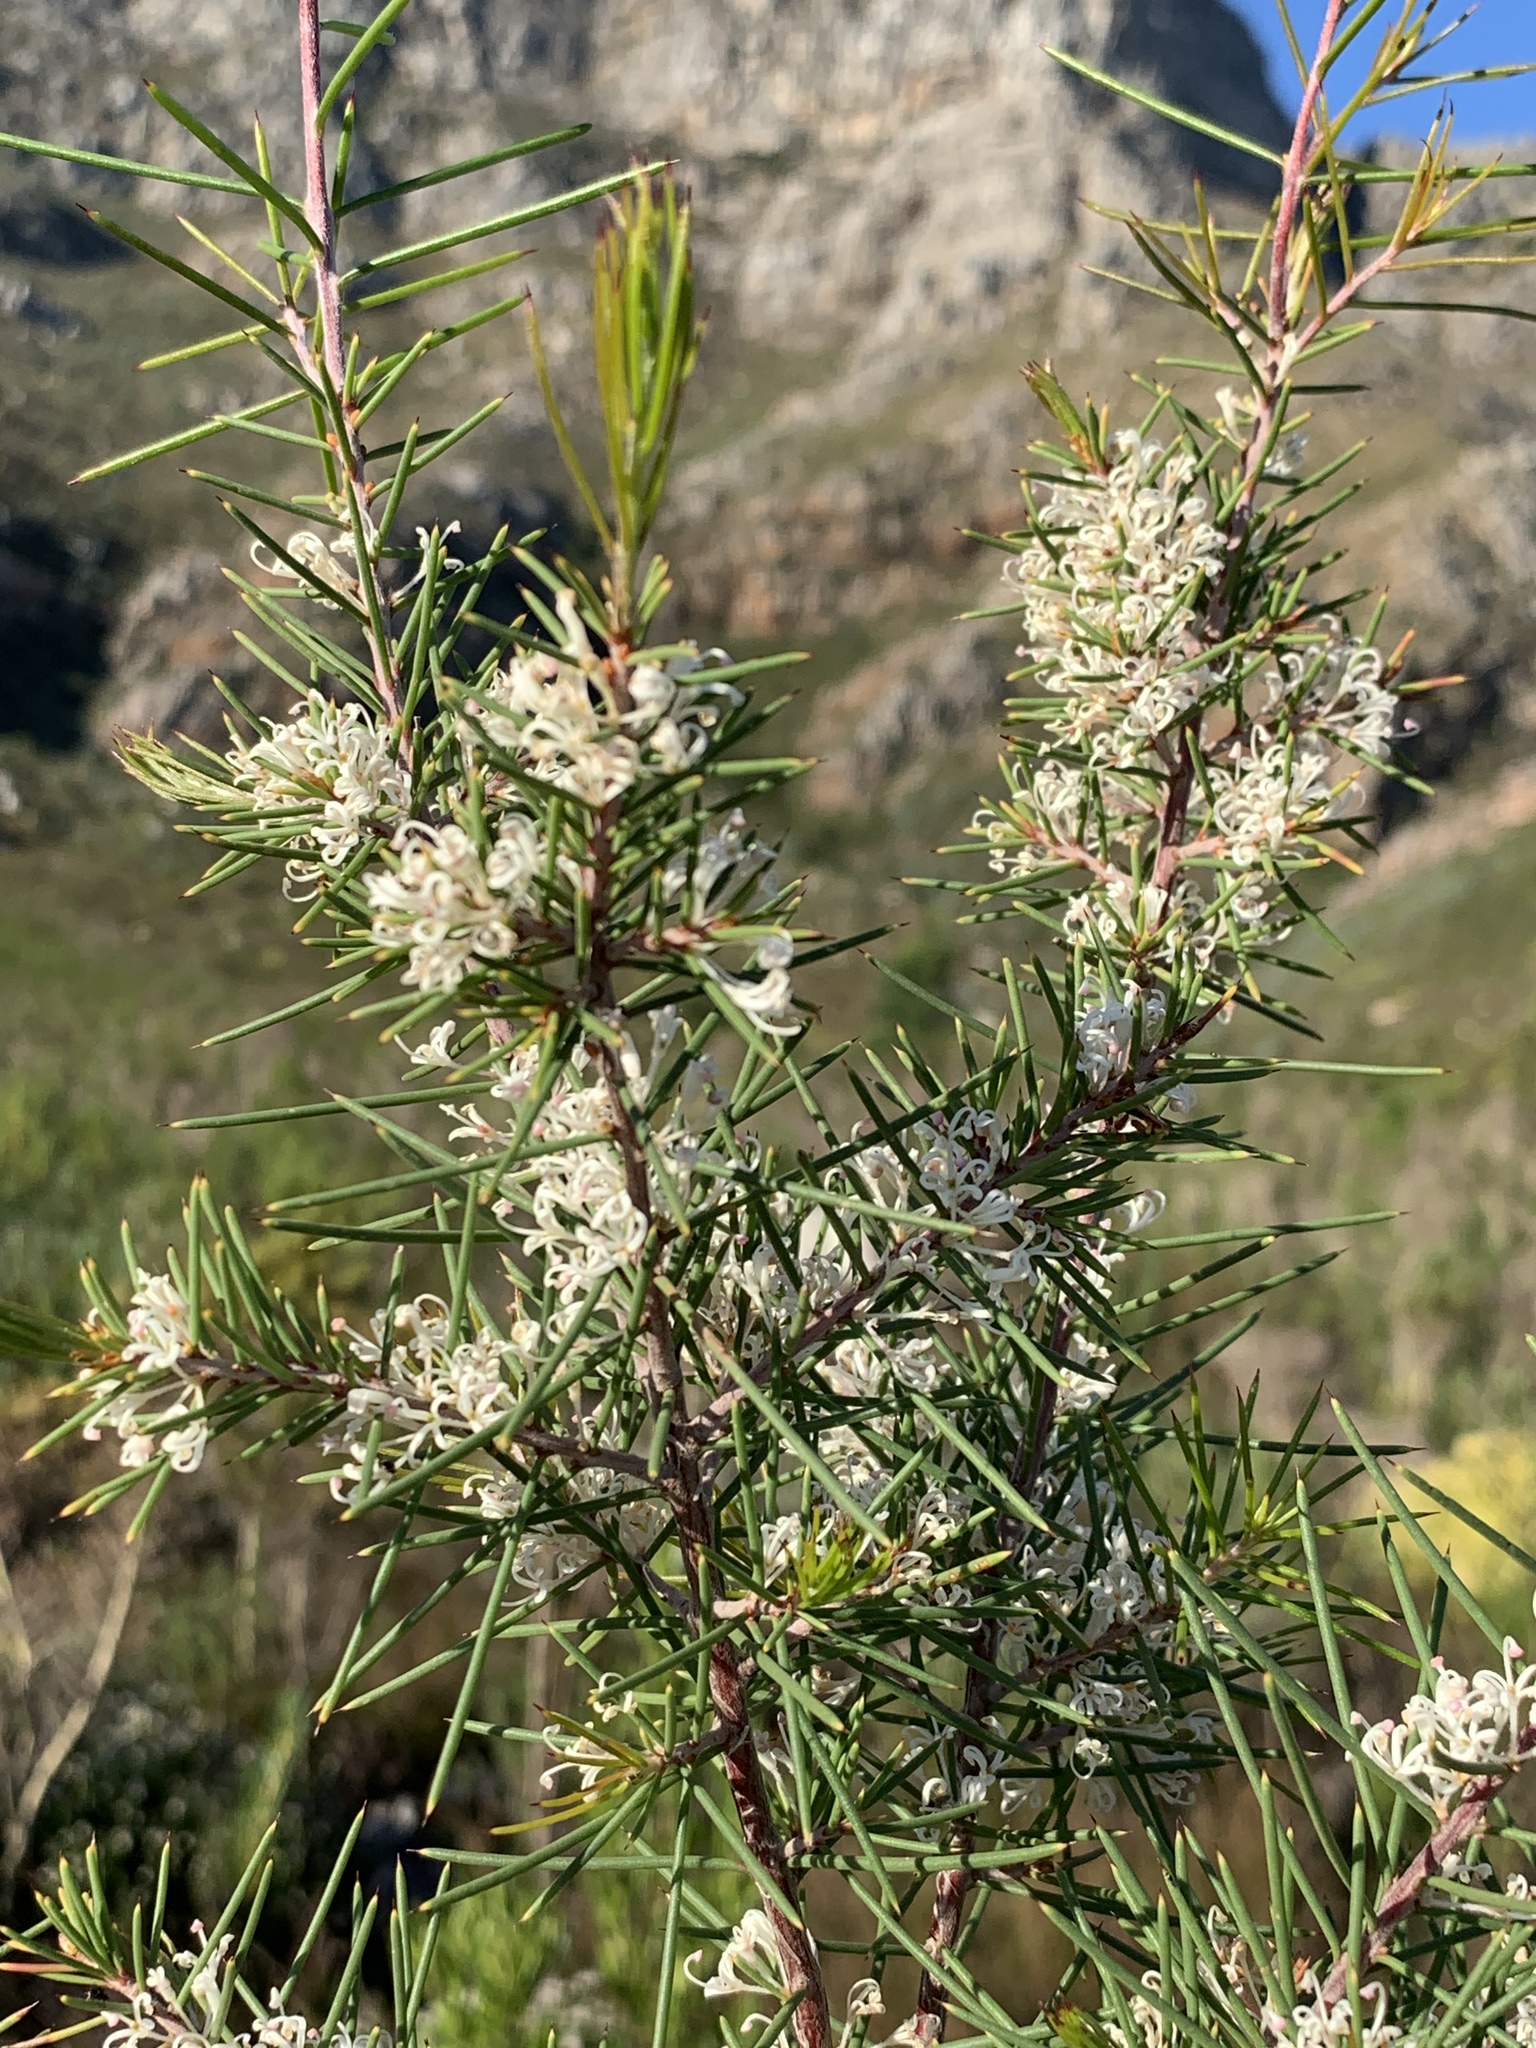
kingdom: Plantae
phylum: Tracheophyta
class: Magnoliopsida
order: Proteales
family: Proteaceae
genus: Hakea
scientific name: Hakea sericea
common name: Needle bush
